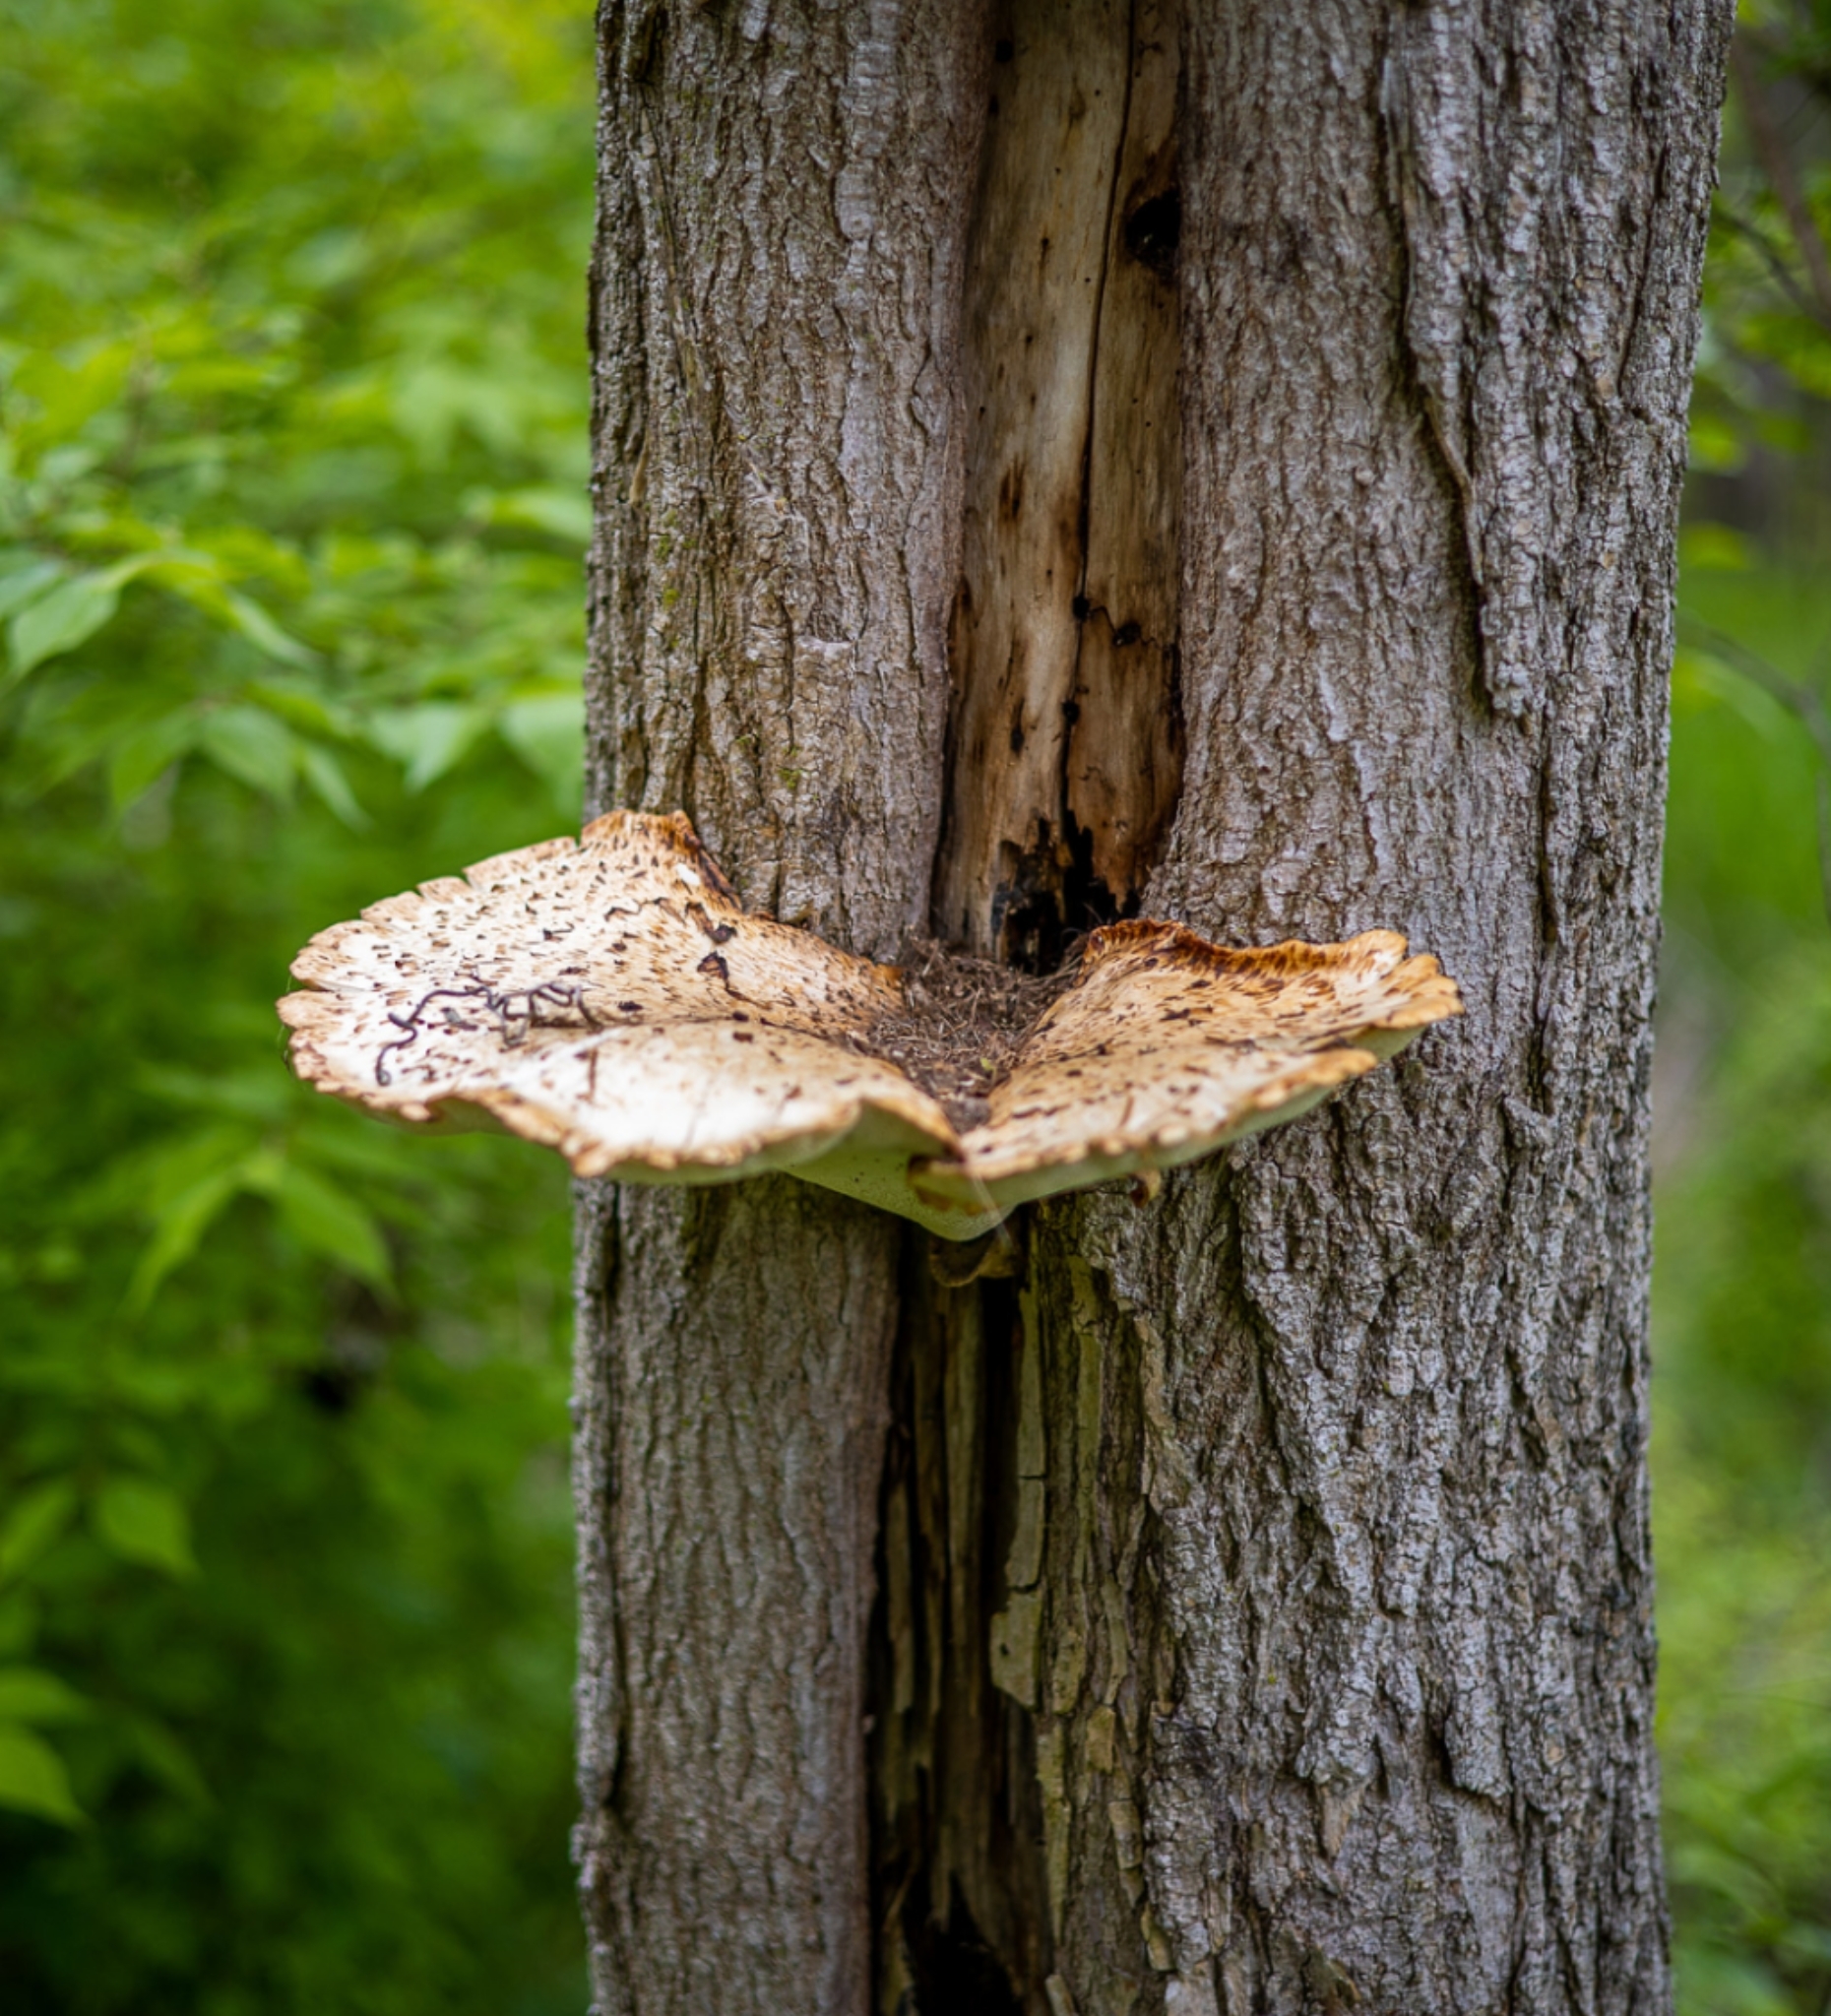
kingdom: Fungi
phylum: Basidiomycota
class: Agaricomycetes
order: Polyporales
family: Polyporaceae
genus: Cerioporus
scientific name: Cerioporus squamosus
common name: Dryad's saddle
